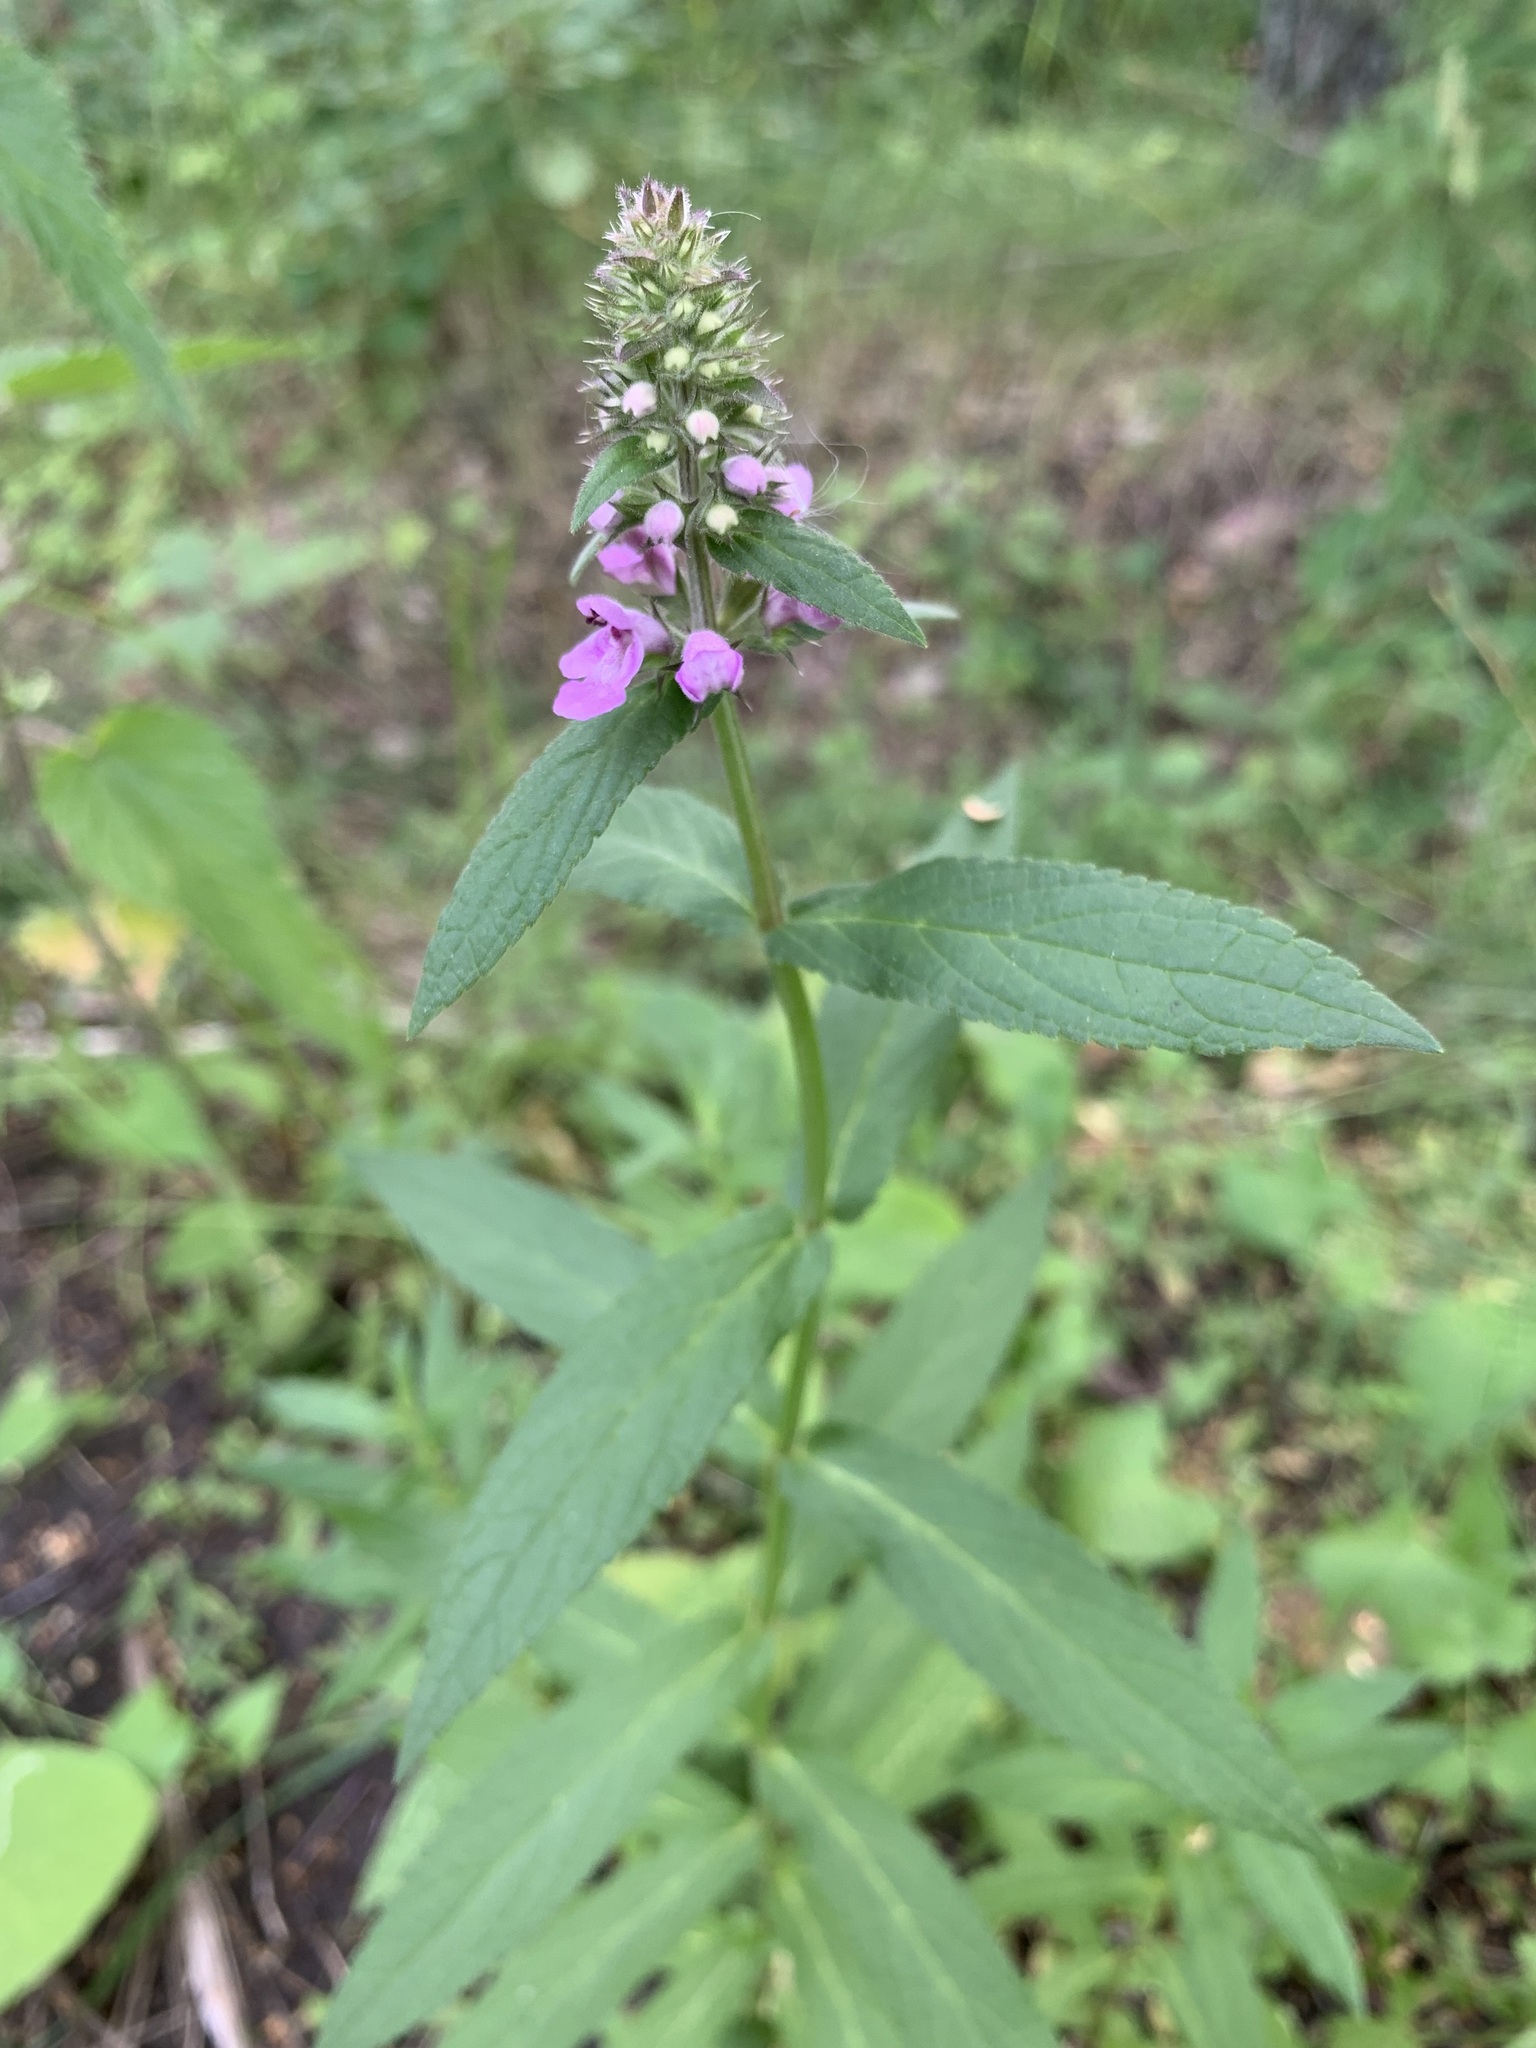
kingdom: Plantae
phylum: Tracheophyta
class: Magnoliopsida
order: Lamiales
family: Lamiaceae
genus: Stachys
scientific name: Stachys palustris
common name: Marsh woundwort
